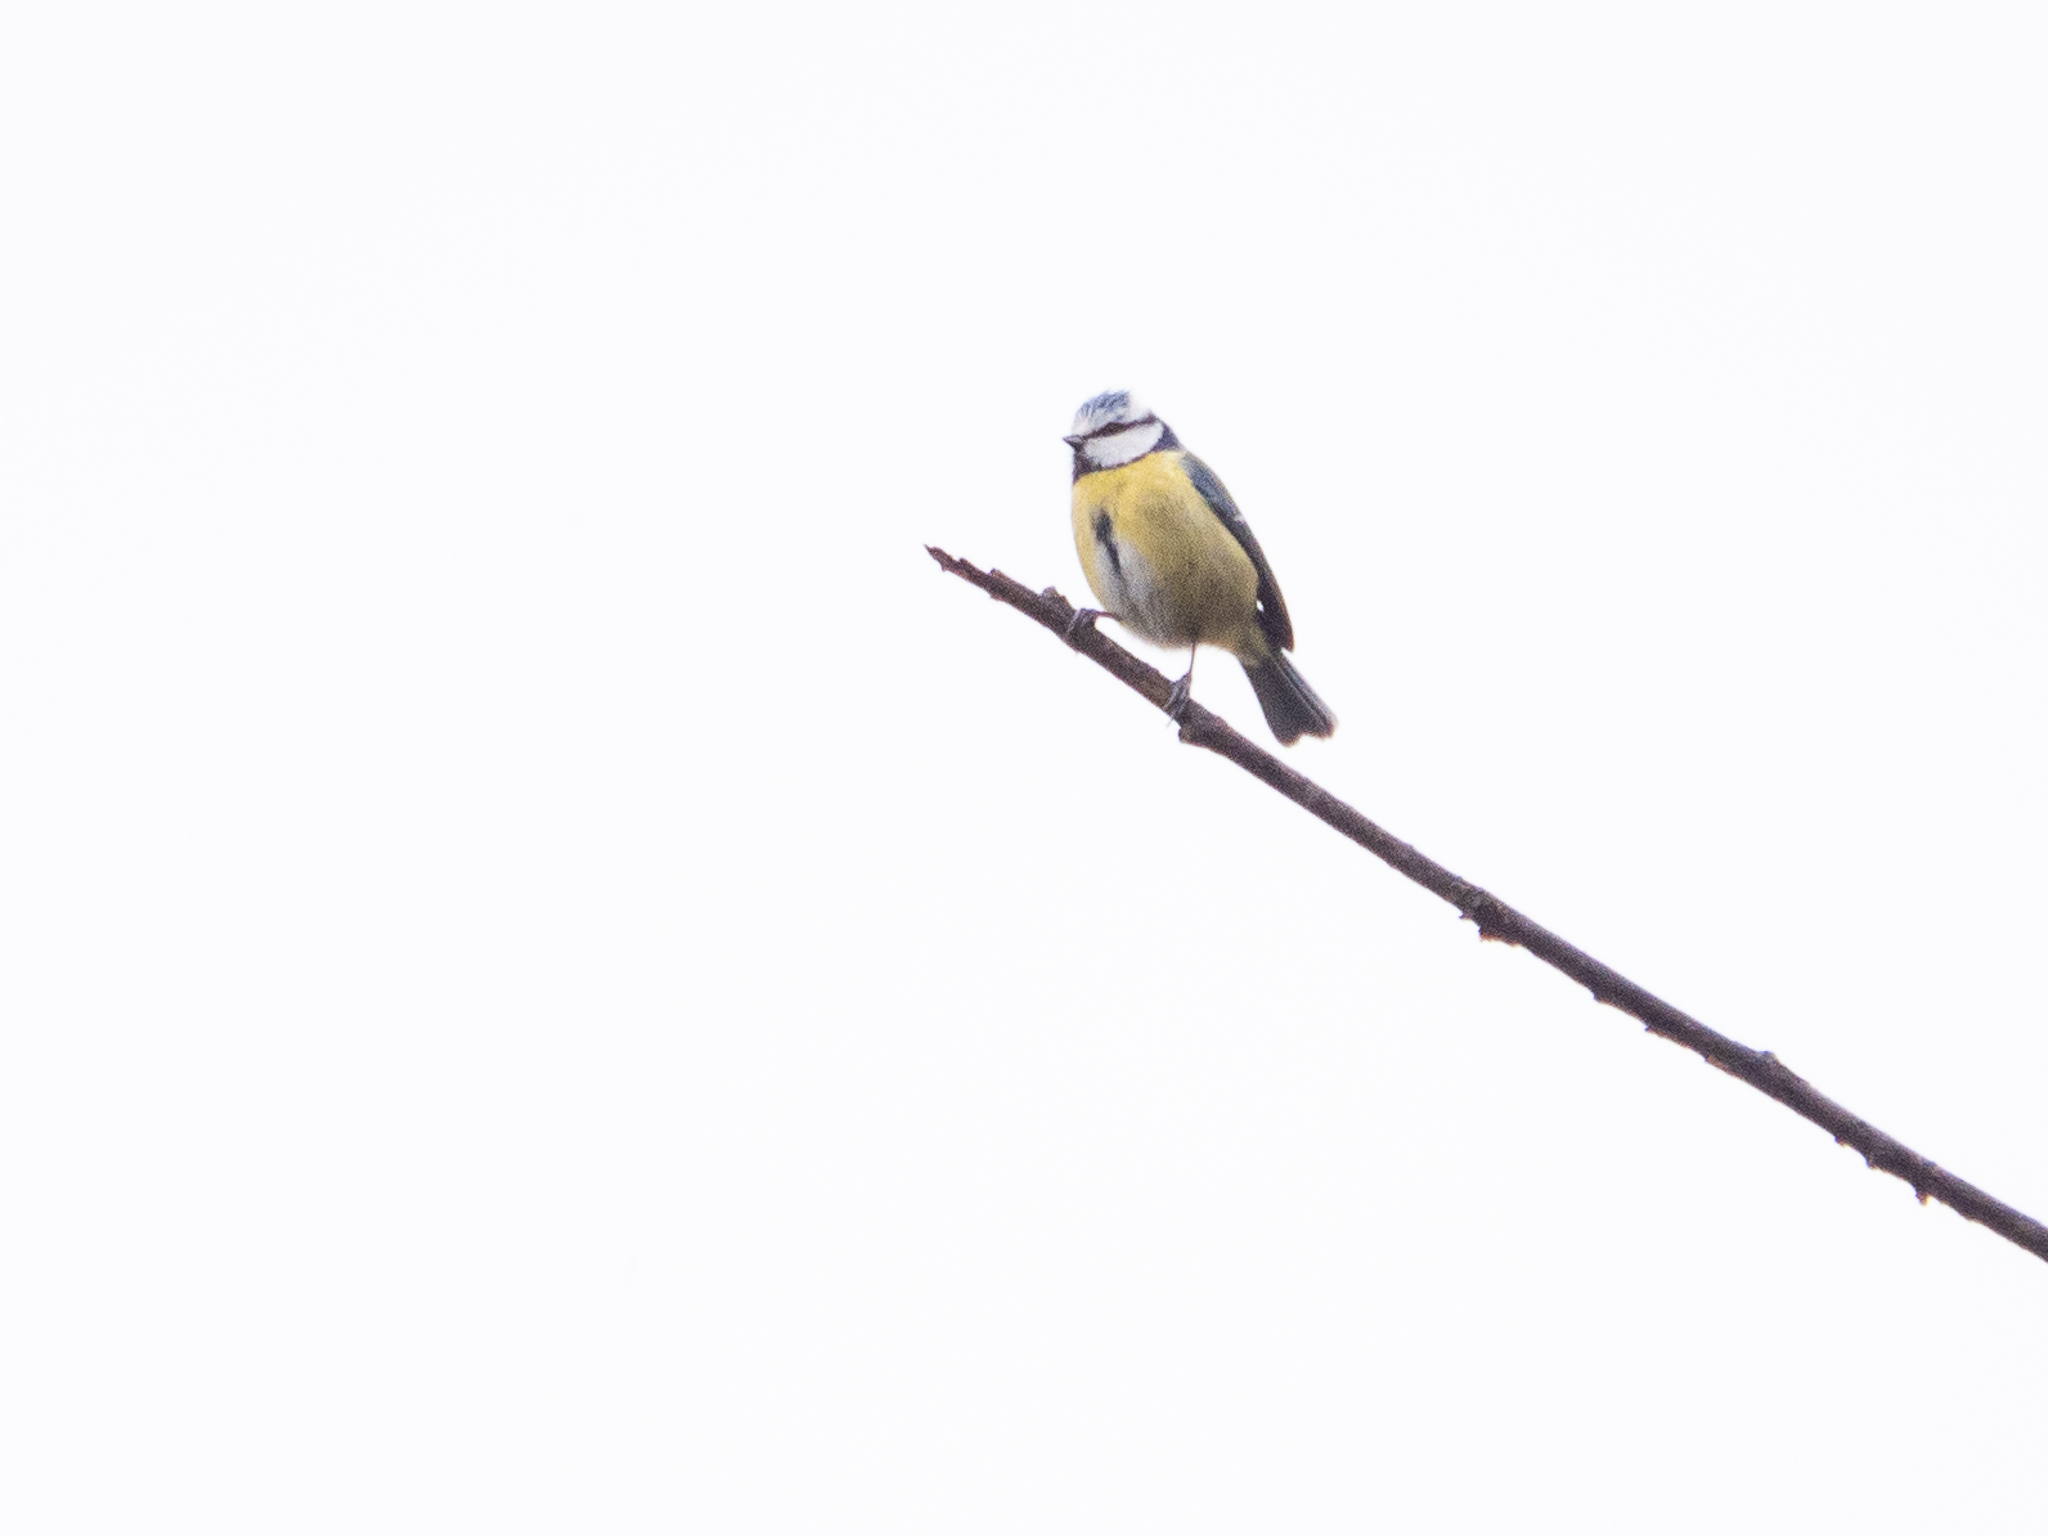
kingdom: Animalia
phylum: Chordata
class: Aves
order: Passeriformes
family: Paridae
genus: Cyanistes
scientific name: Cyanistes caeruleus
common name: Eurasian blue tit
